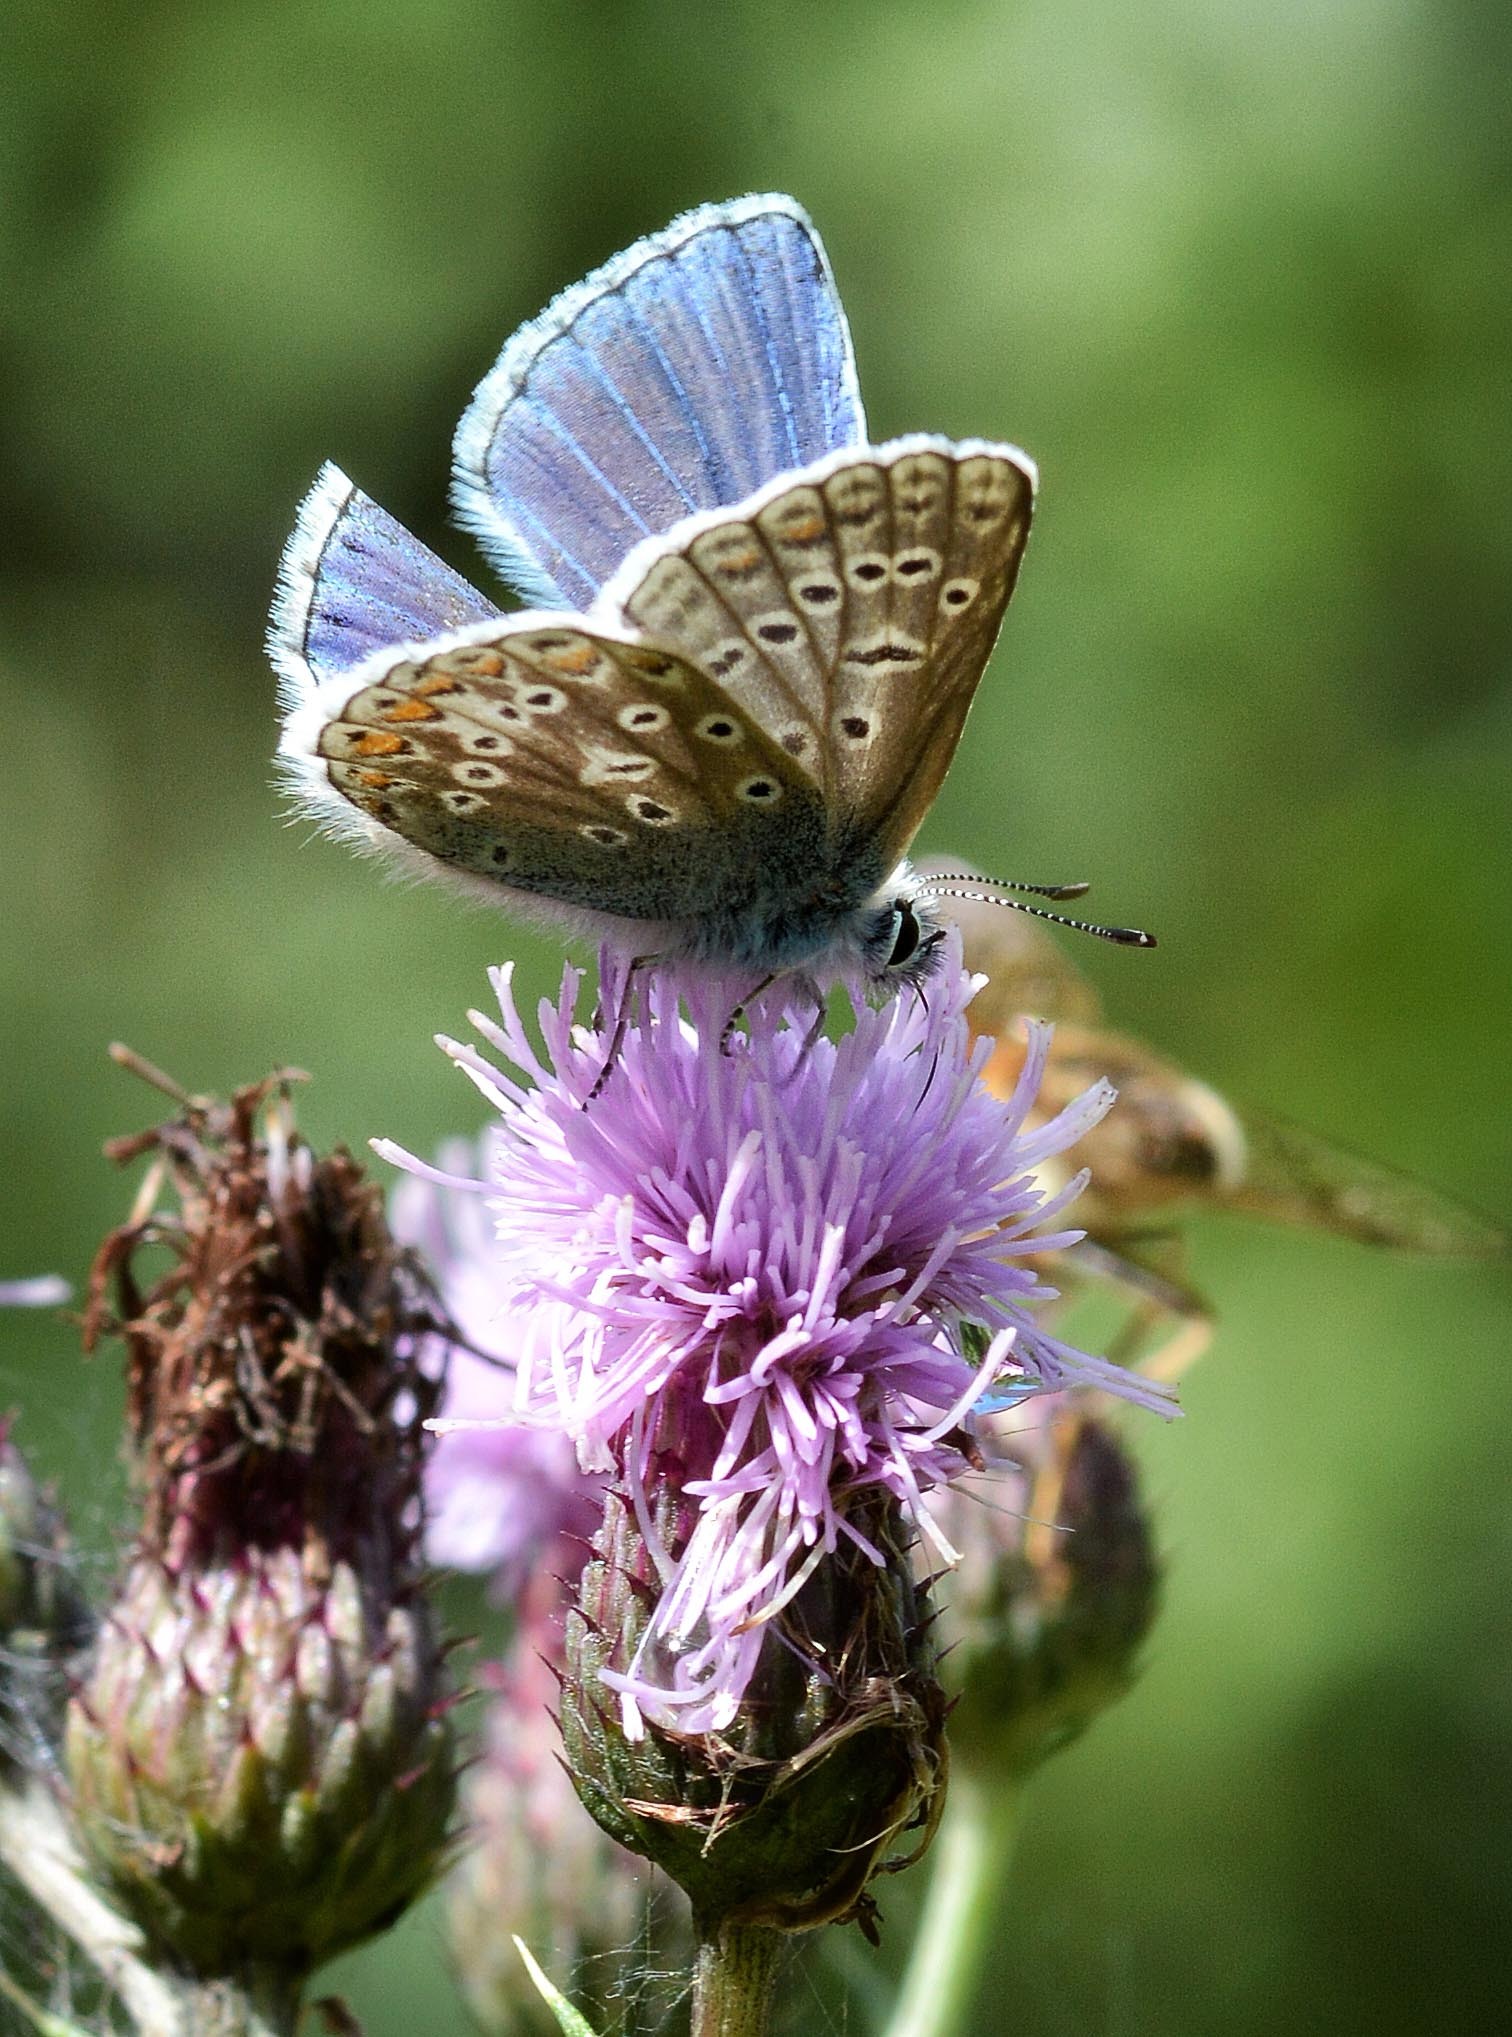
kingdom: Animalia
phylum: Arthropoda
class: Insecta
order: Lepidoptera
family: Lycaenidae
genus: Polyommatus
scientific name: Polyommatus icarus
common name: Common blue
